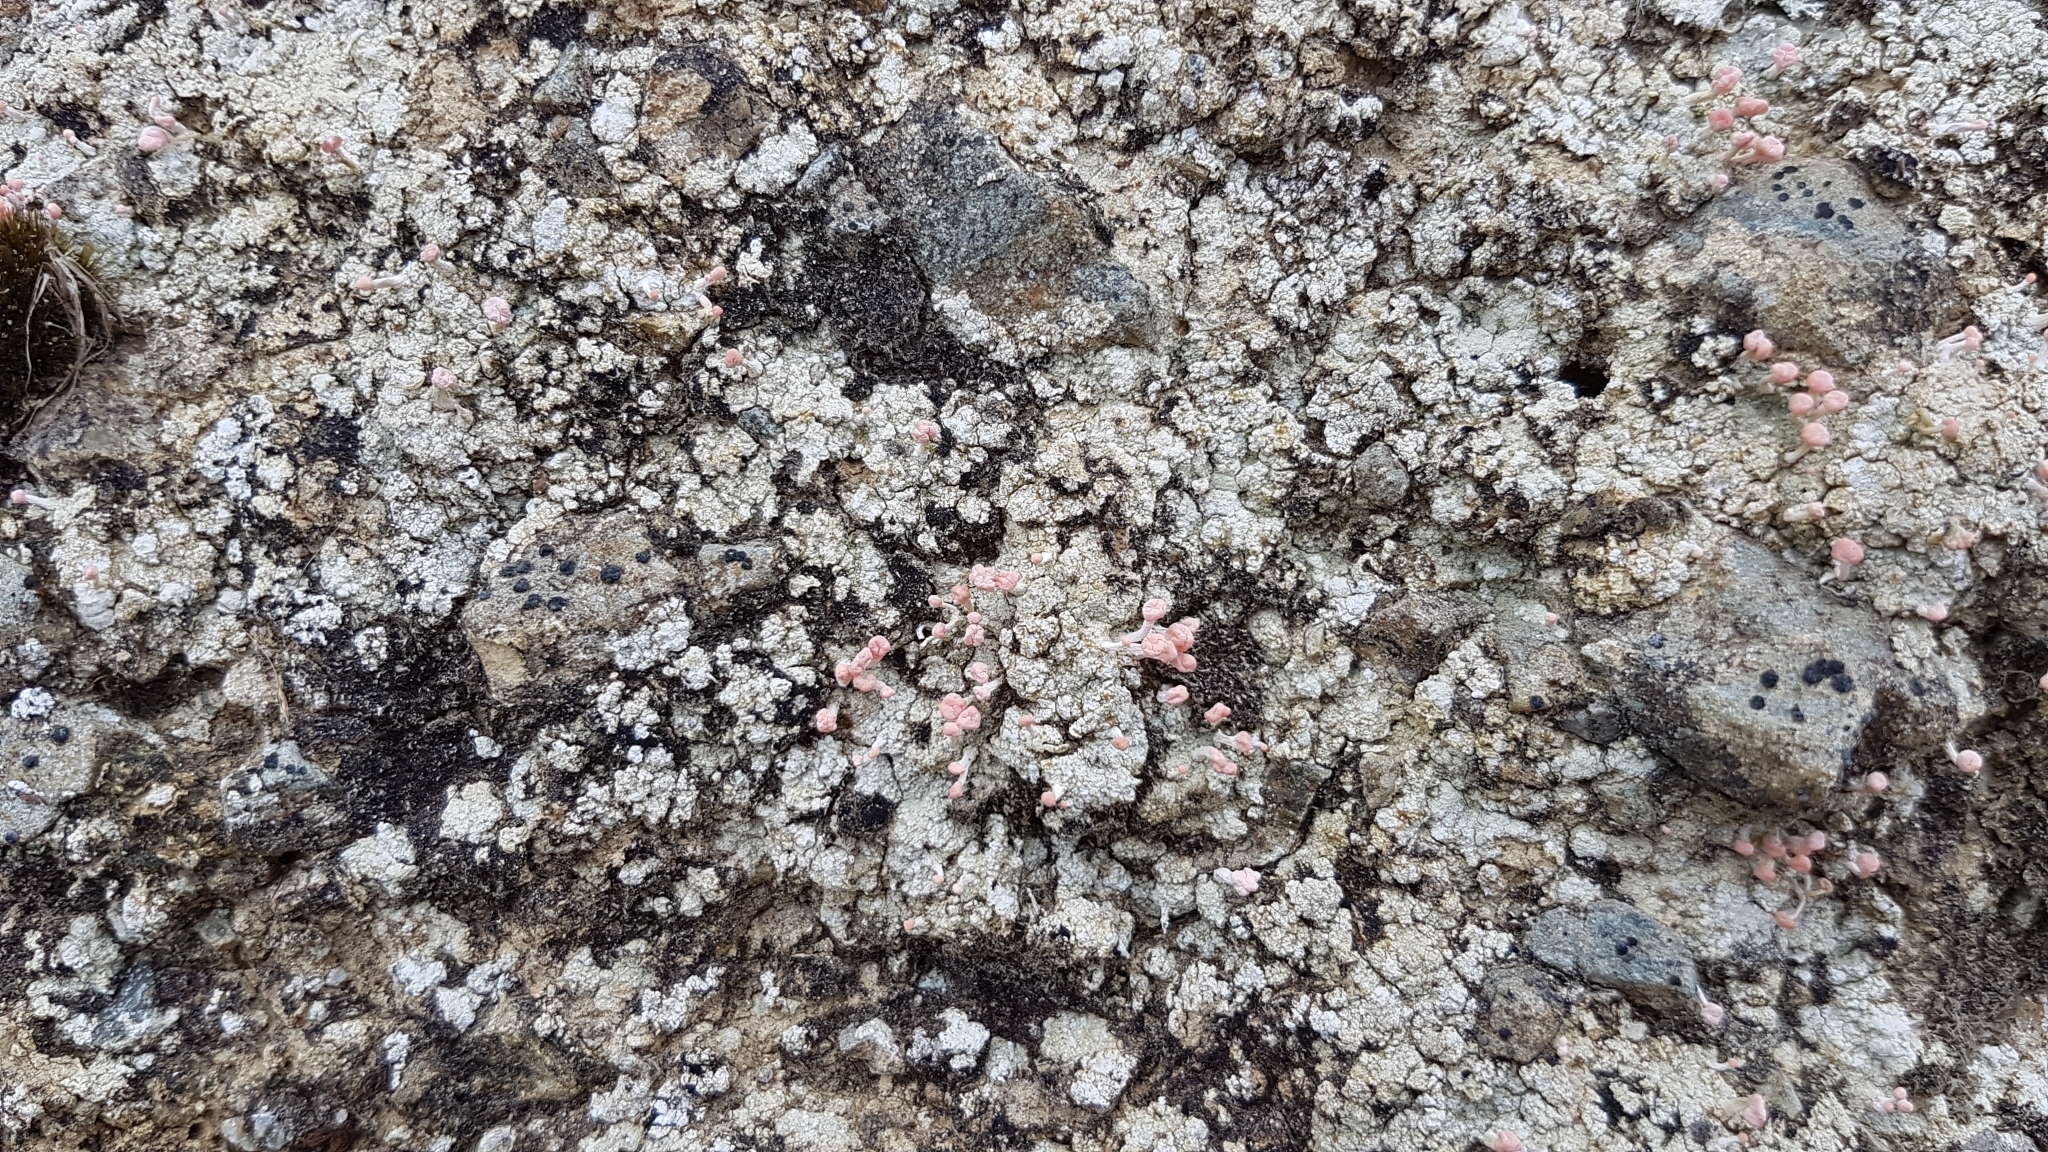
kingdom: Fungi
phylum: Ascomycota
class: Lecanoromycetes
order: Pertusariales
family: Icmadophilaceae
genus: Dibaeis
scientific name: Dibaeis arcuata
